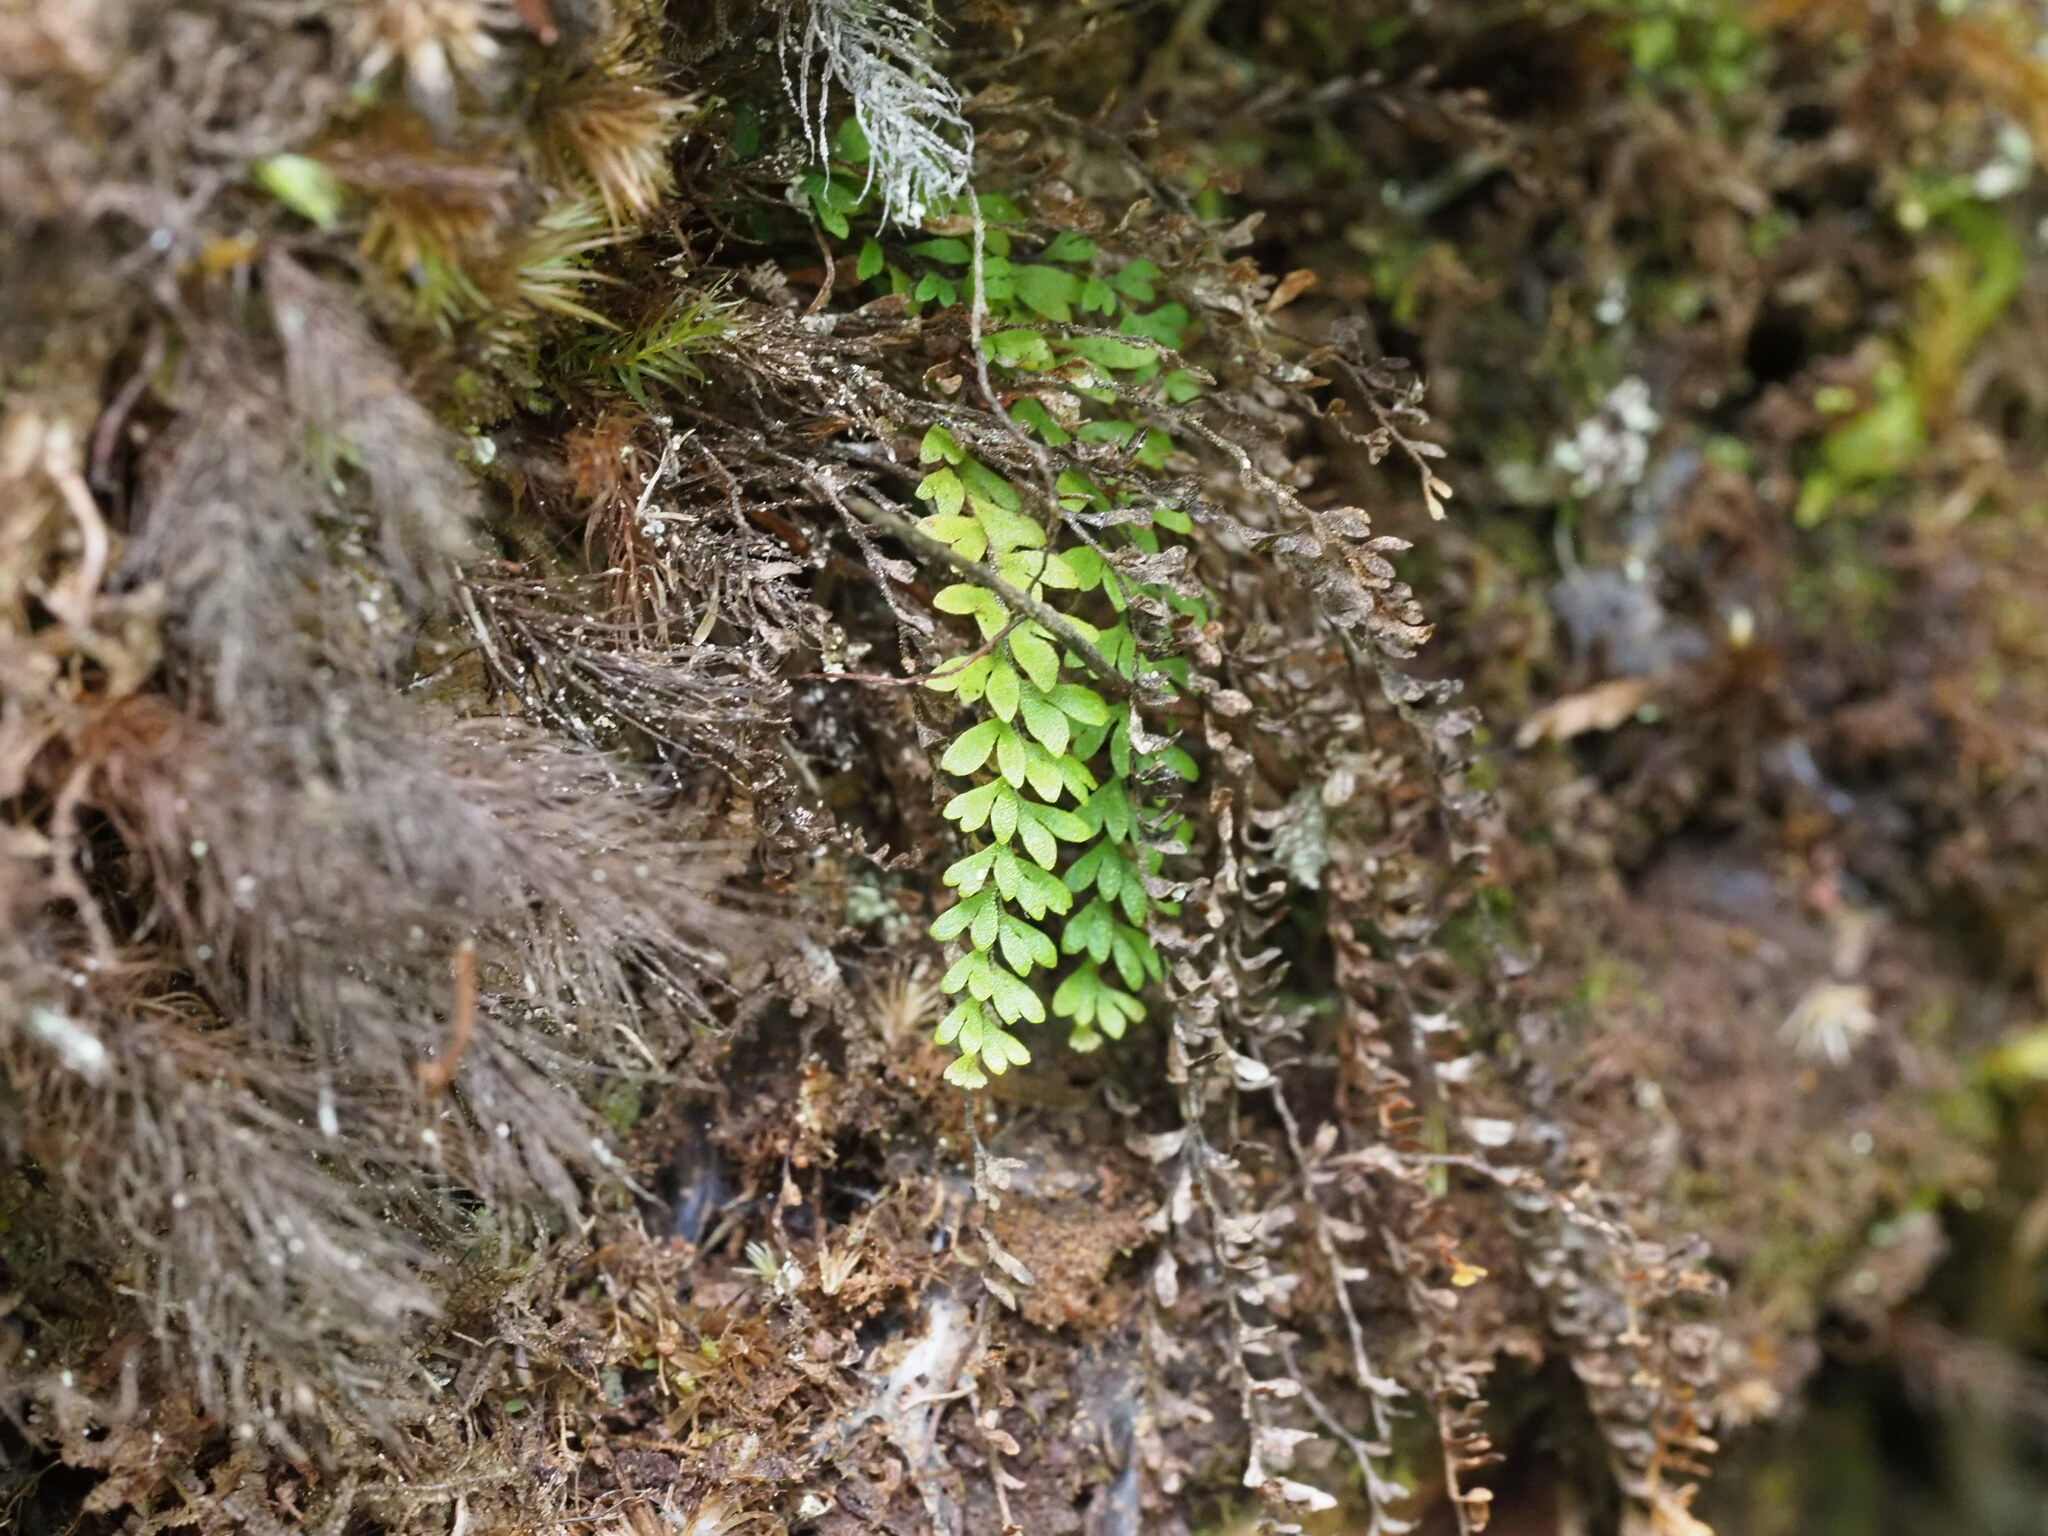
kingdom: Plantae
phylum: Tracheophyta
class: Polypodiopsida
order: Polypodiales
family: Polypodiaceae
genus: Adenophorus
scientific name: Adenophorus hymenophylloides
